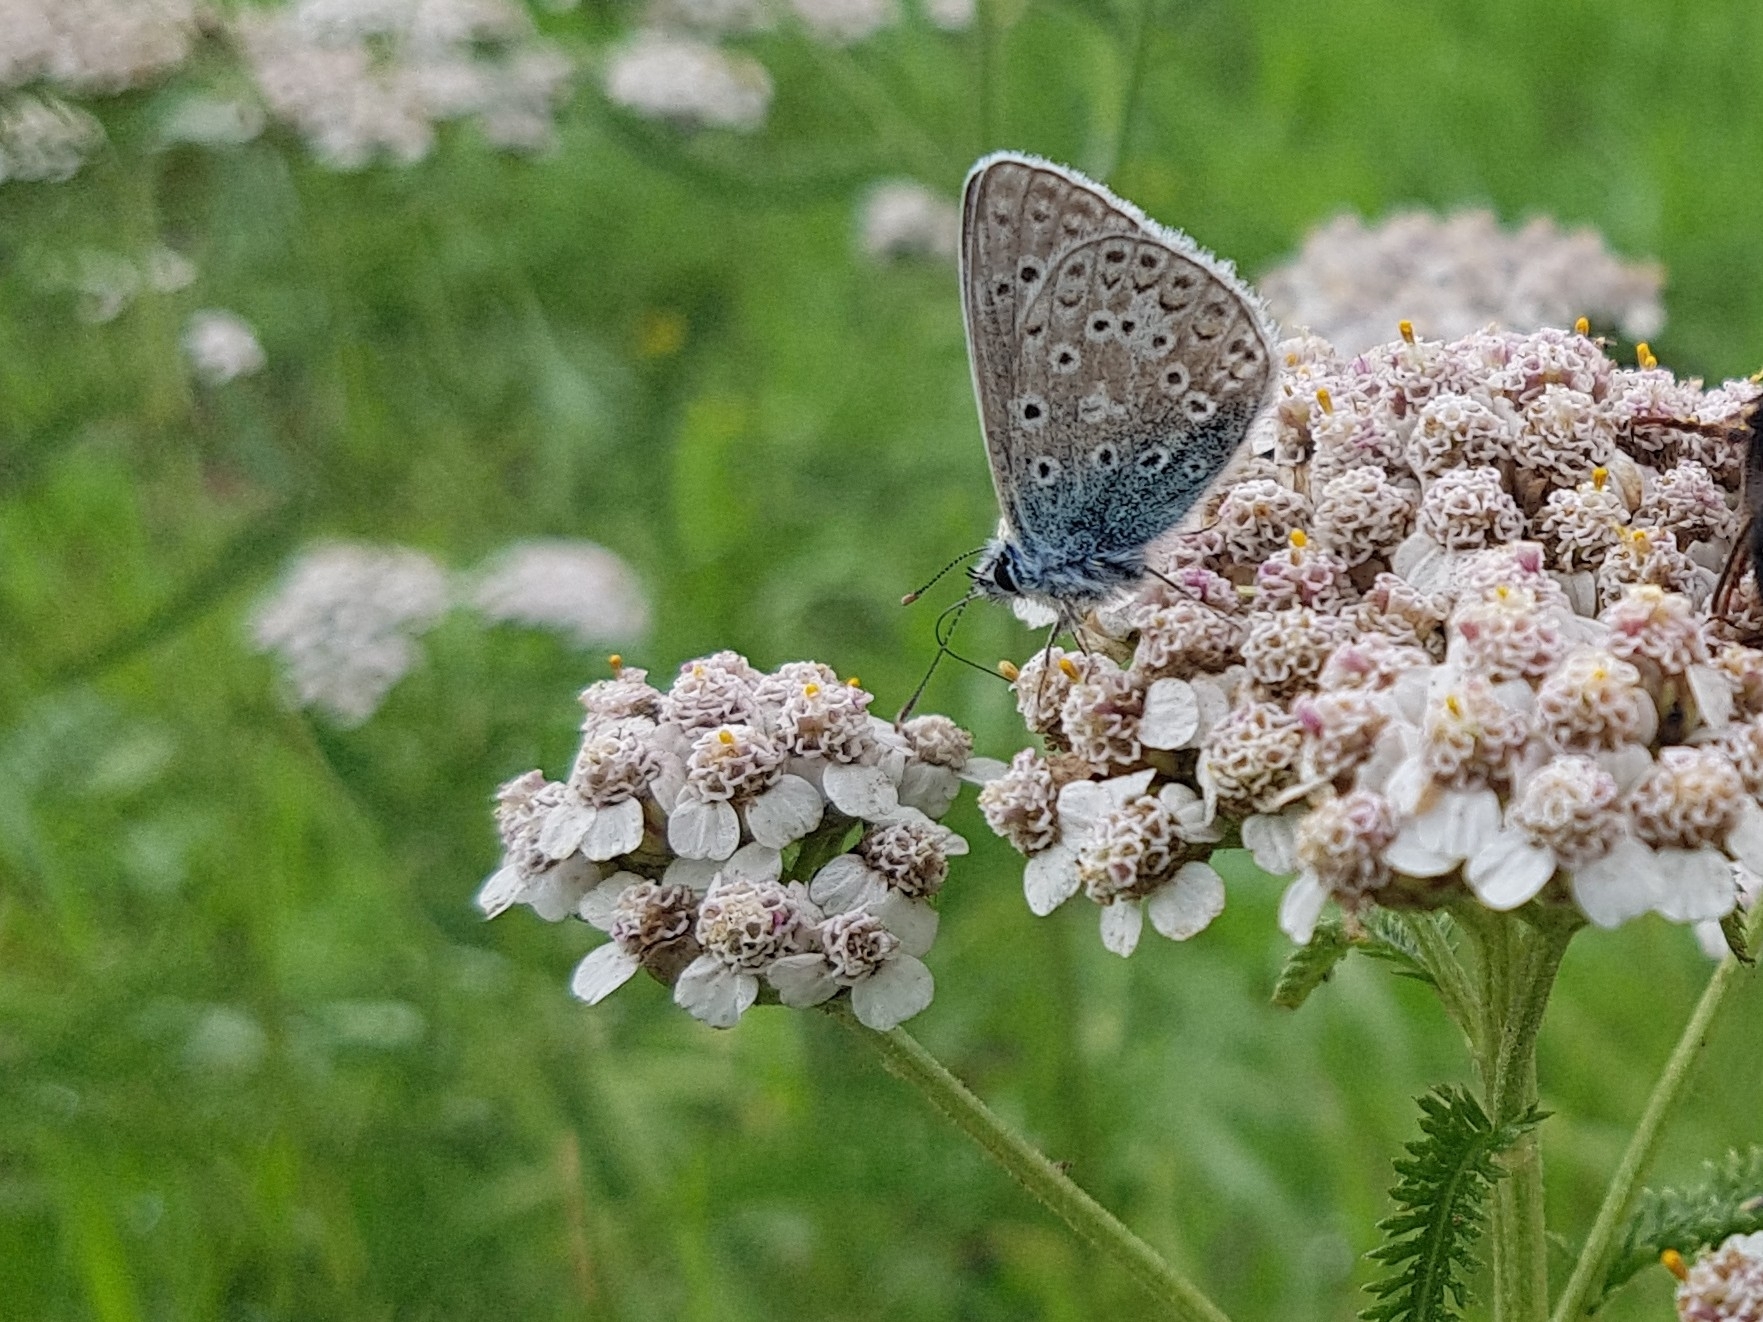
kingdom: Animalia
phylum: Arthropoda
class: Insecta
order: Lepidoptera
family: Lycaenidae
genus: Polyommatus
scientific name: Polyommatus icarus
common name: Common blue
